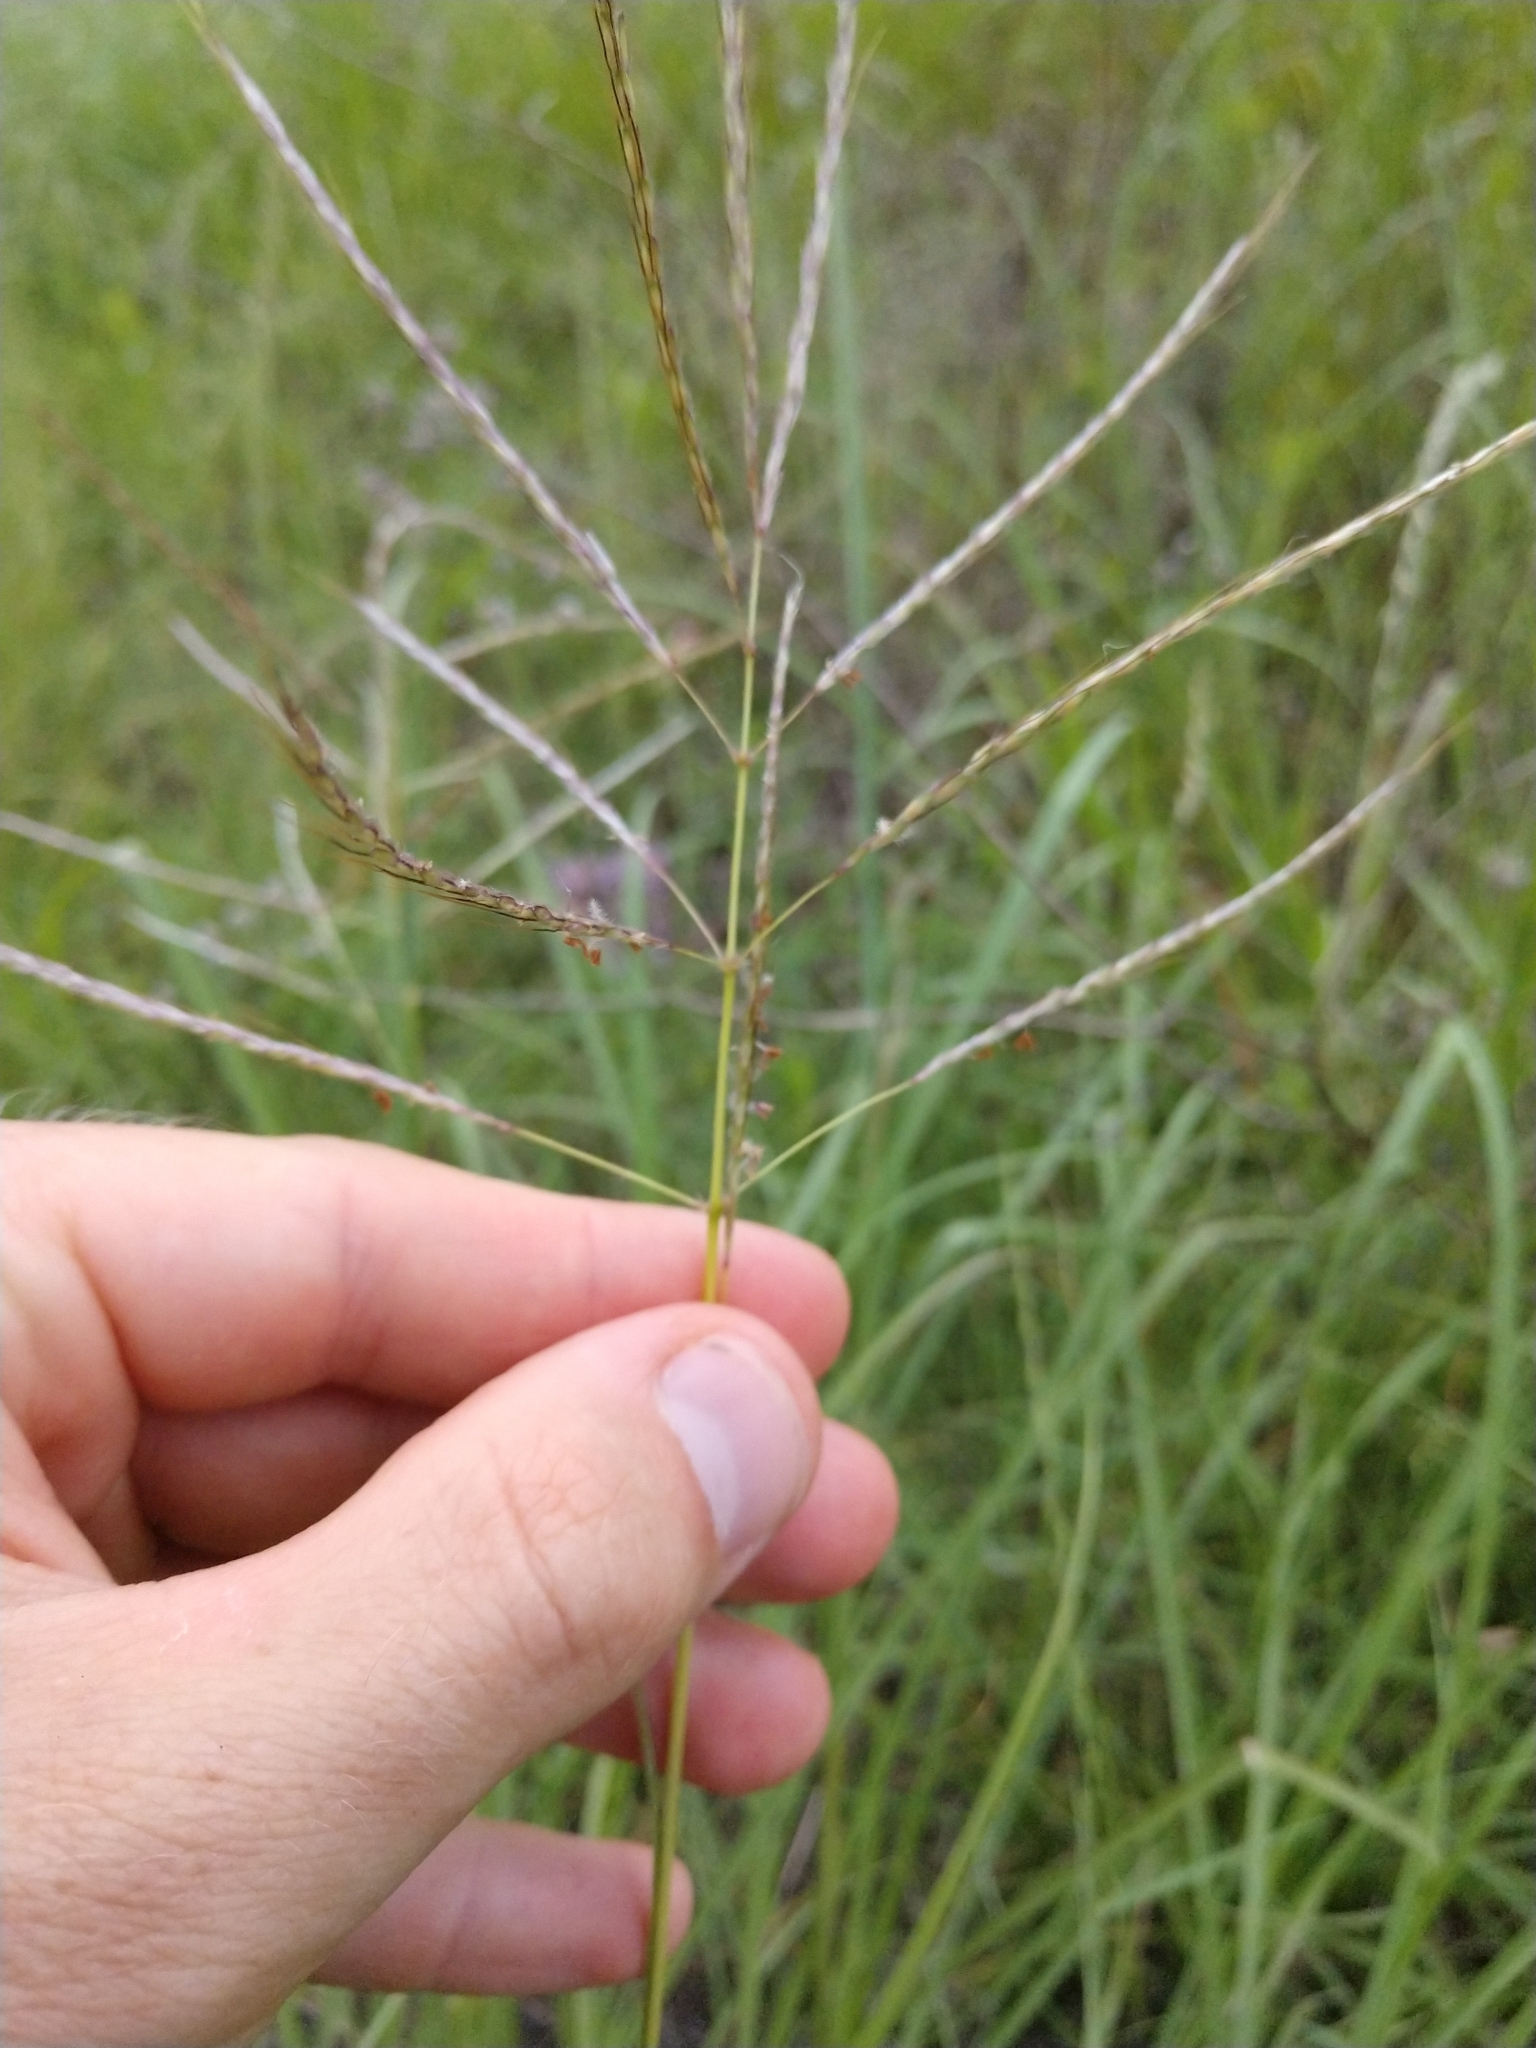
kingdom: Plantae
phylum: Tracheophyta
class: Liliopsida
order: Poales
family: Poaceae
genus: Bothriochloa
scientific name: Bothriochloa bladhii
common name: Caucasian bluestem
